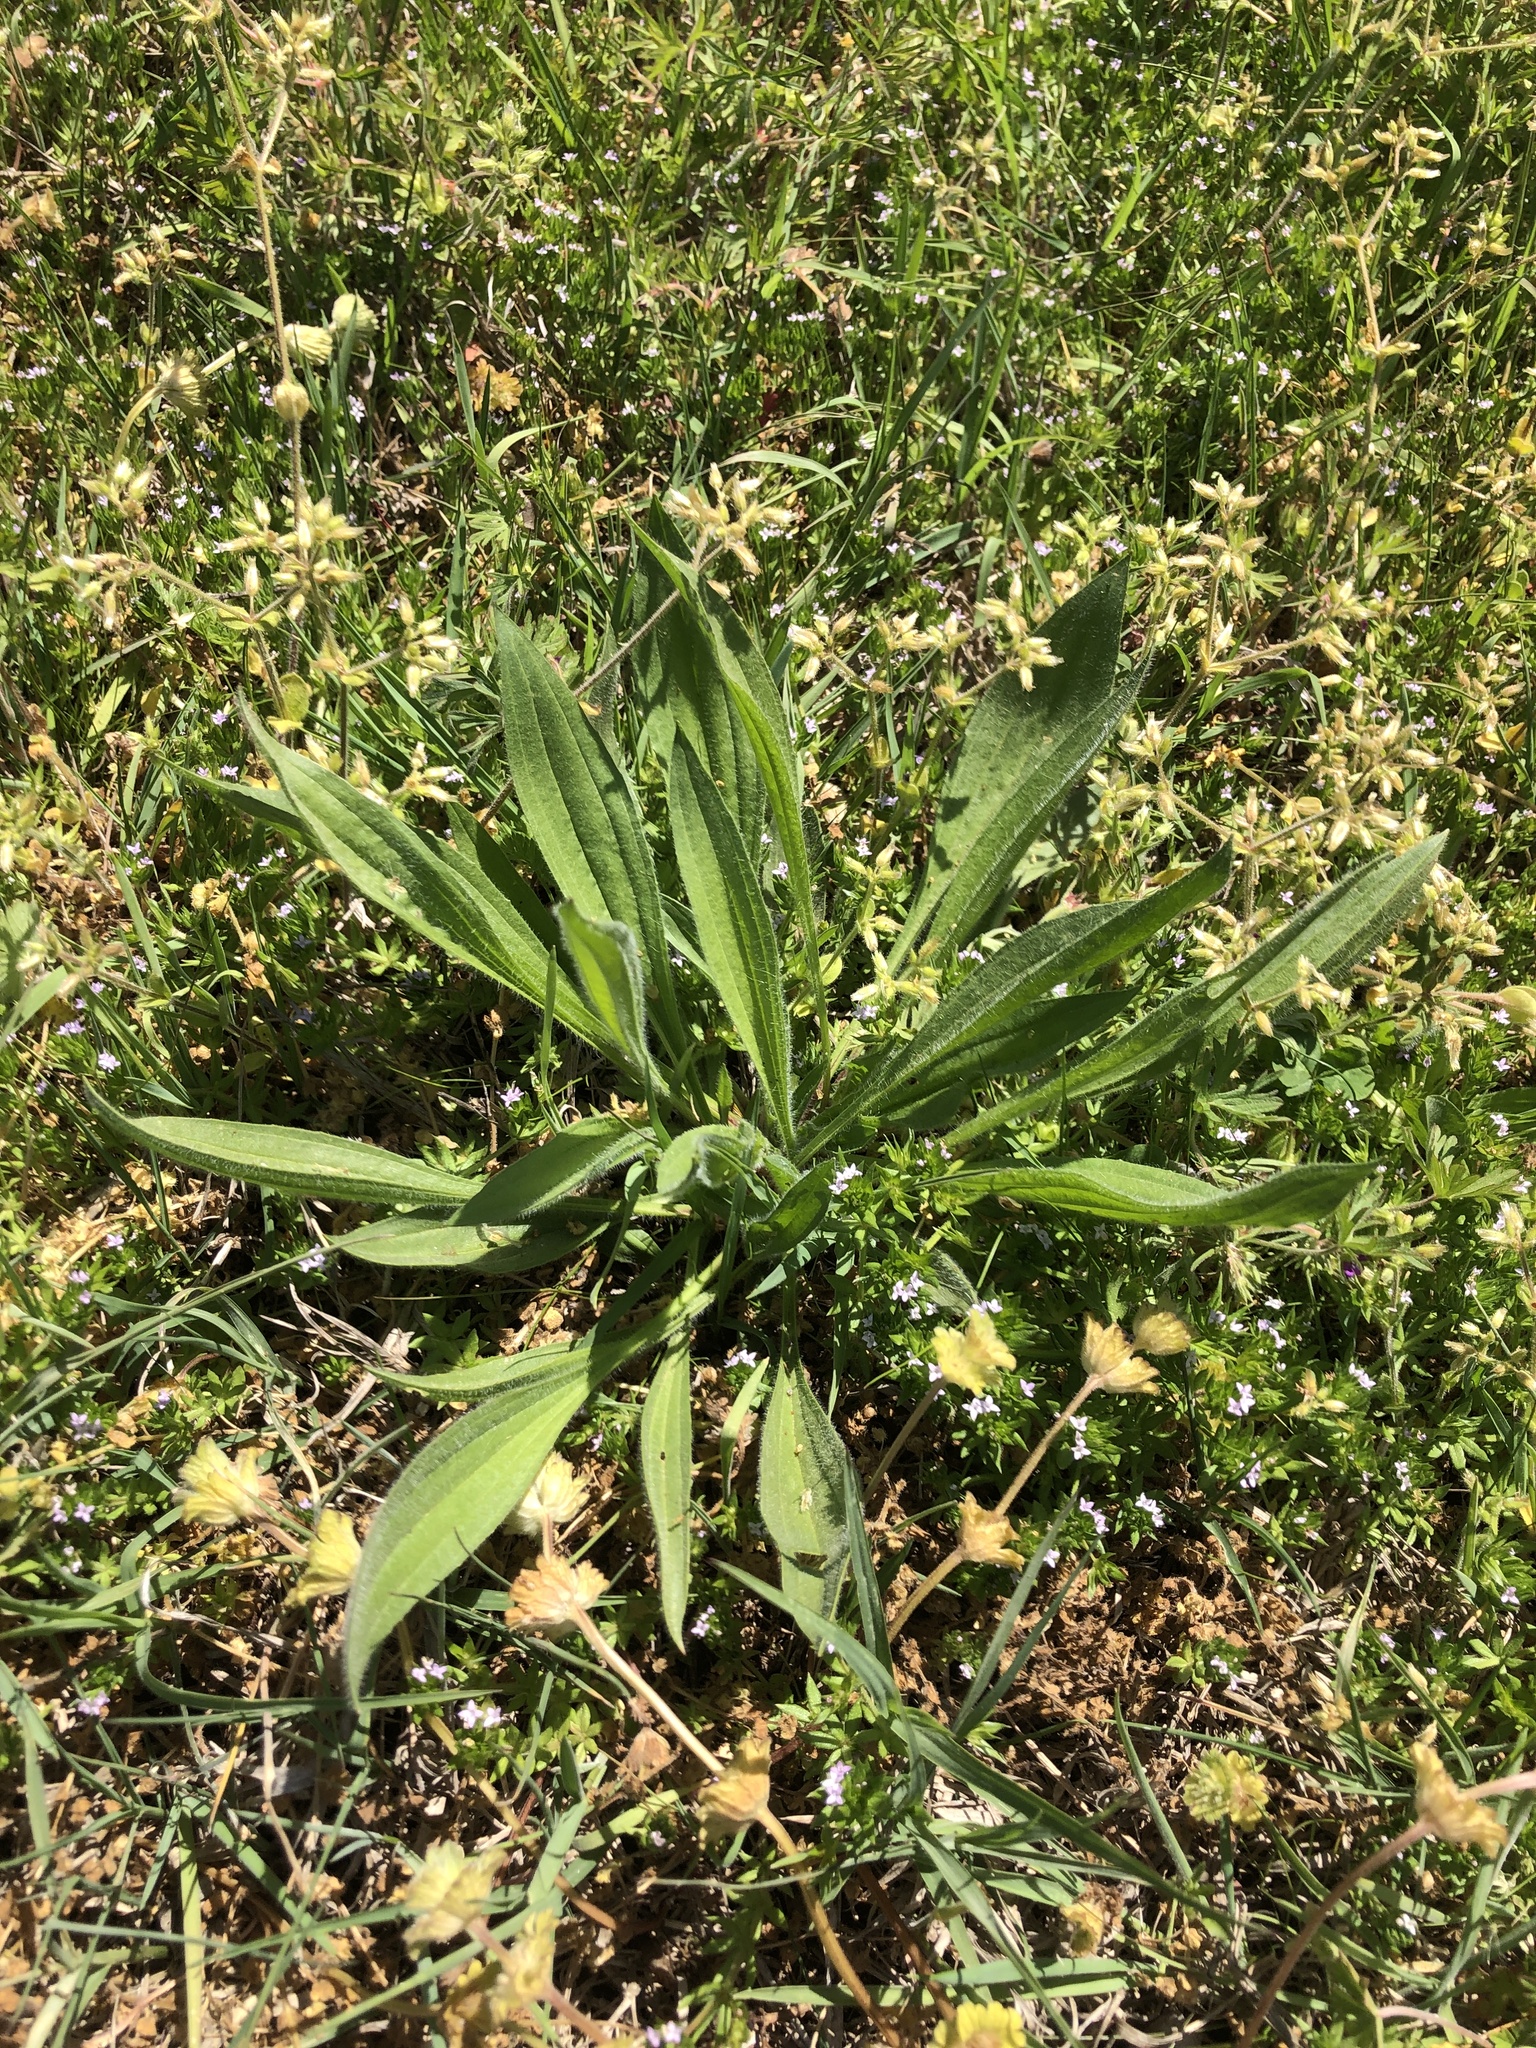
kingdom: Plantae
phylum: Tracheophyta
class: Magnoliopsida
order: Lamiales
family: Plantaginaceae
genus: Plantago
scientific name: Plantago lanceolata
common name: Ribwort plantain
